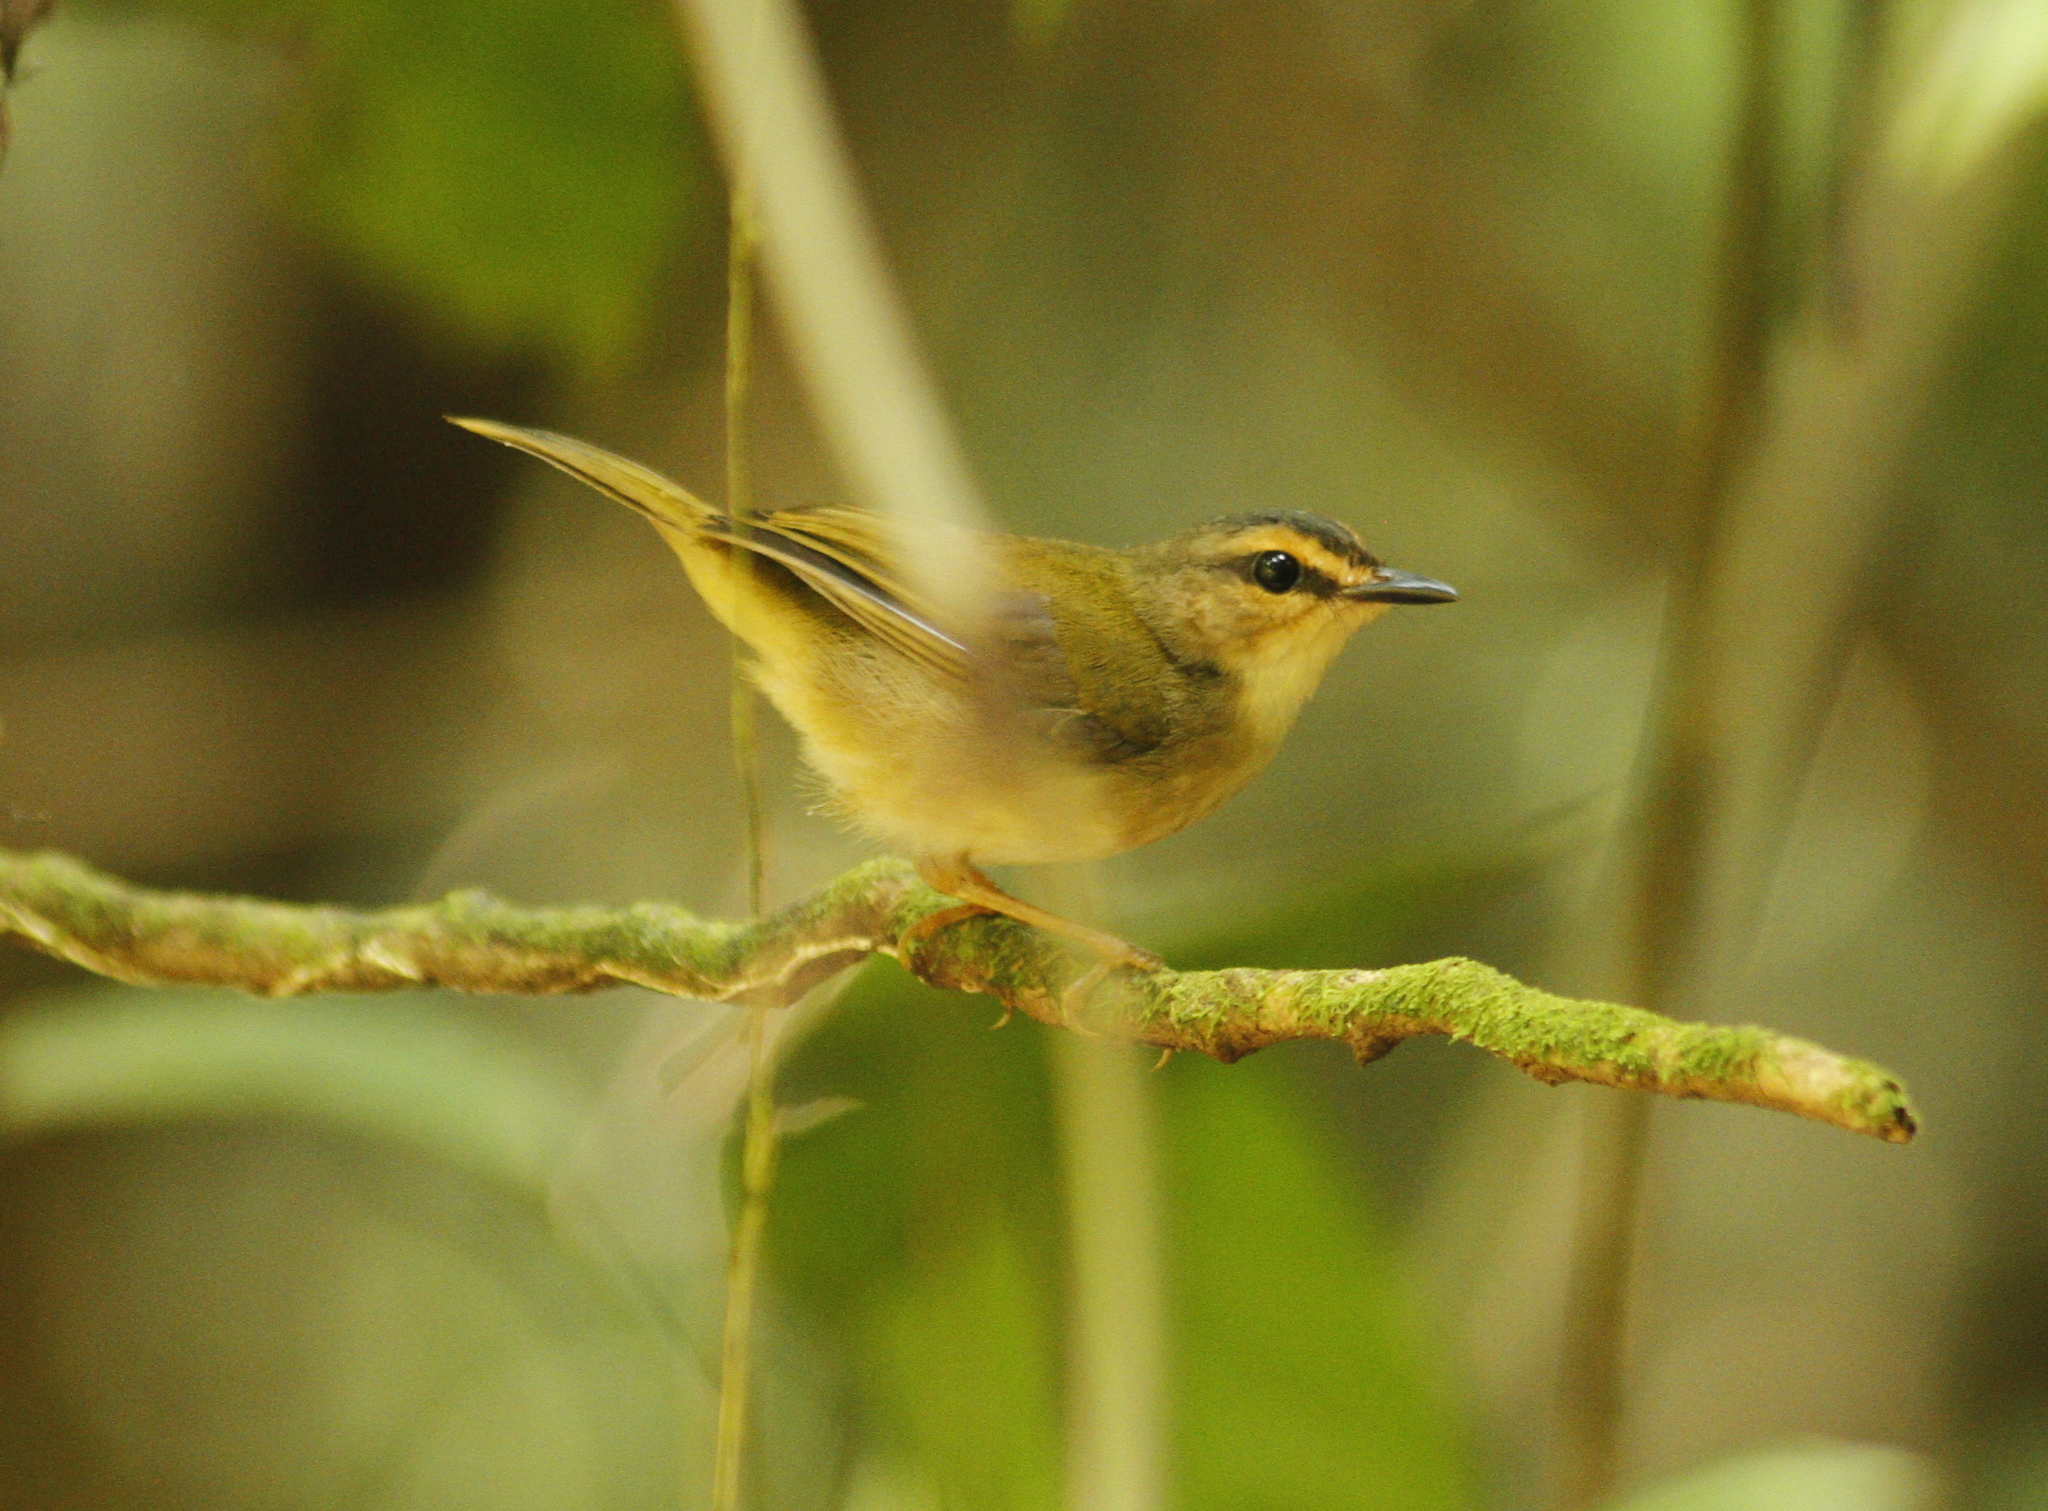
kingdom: Animalia
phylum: Chordata
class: Aves
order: Passeriformes
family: Parulidae
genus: Myiothlypis
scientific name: Myiothlypis rivularis
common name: Riverbank warbler
